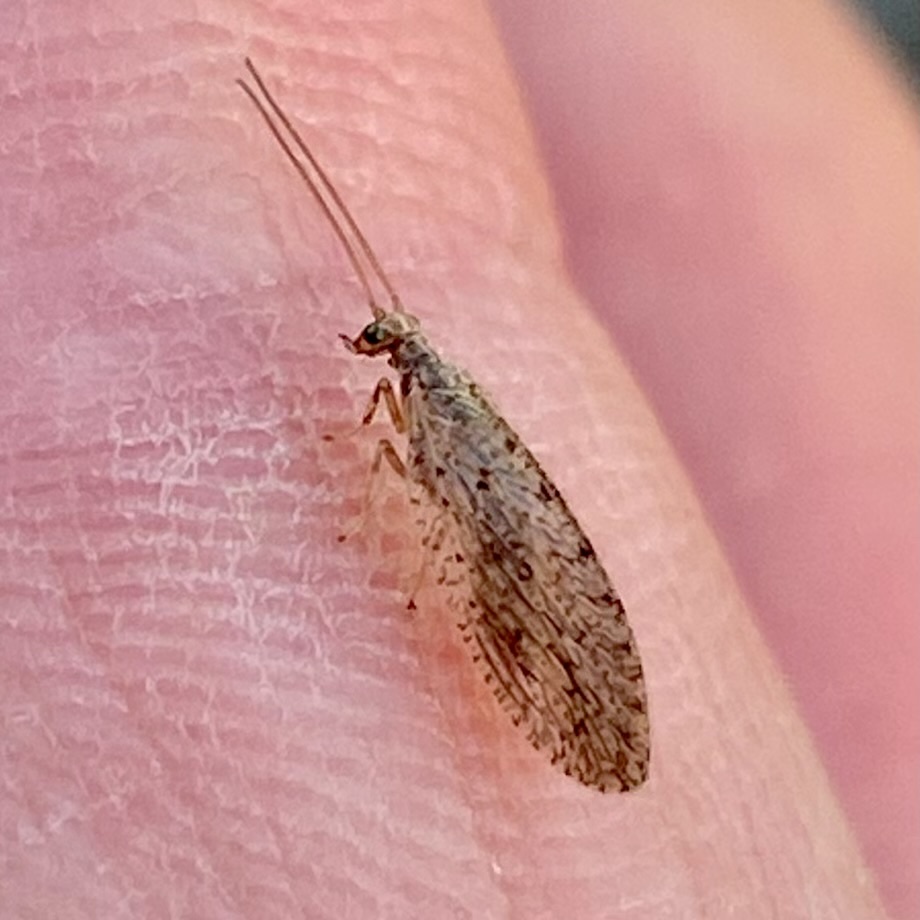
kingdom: Animalia
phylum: Arthropoda
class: Insecta
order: Neuroptera
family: Hemerobiidae
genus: Micromus
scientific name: Micromus variolosus
